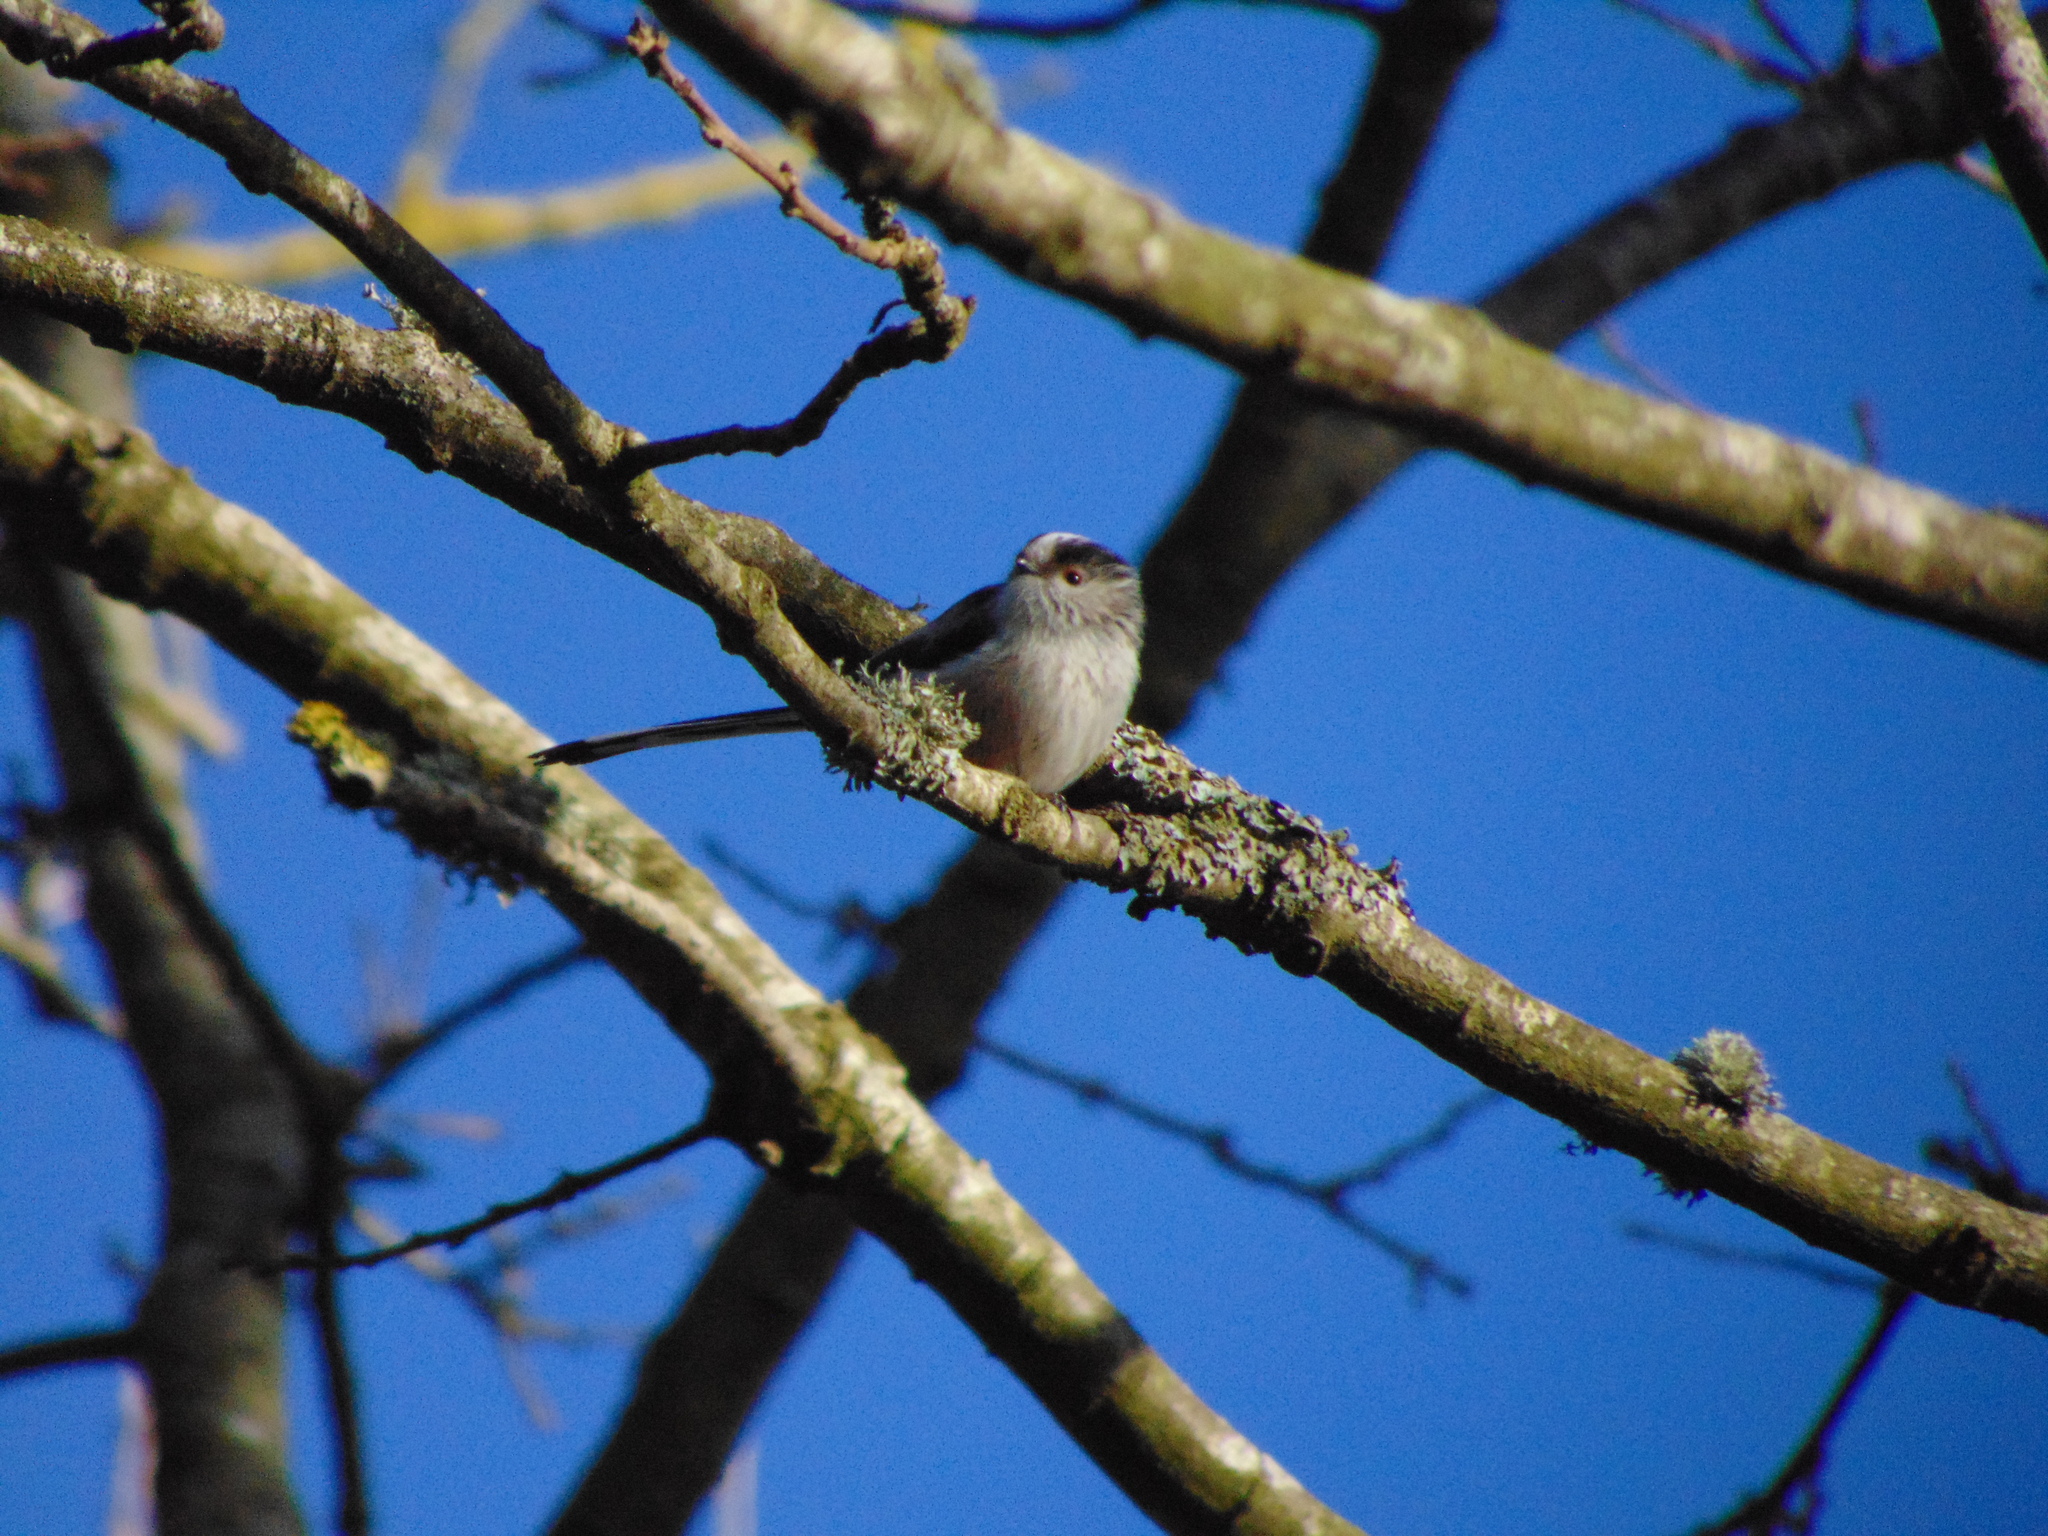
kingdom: Animalia
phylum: Chordata
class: Aves
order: Passeriformes
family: Aegithalidae
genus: Aegithalos
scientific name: Aegithalos caudatus
